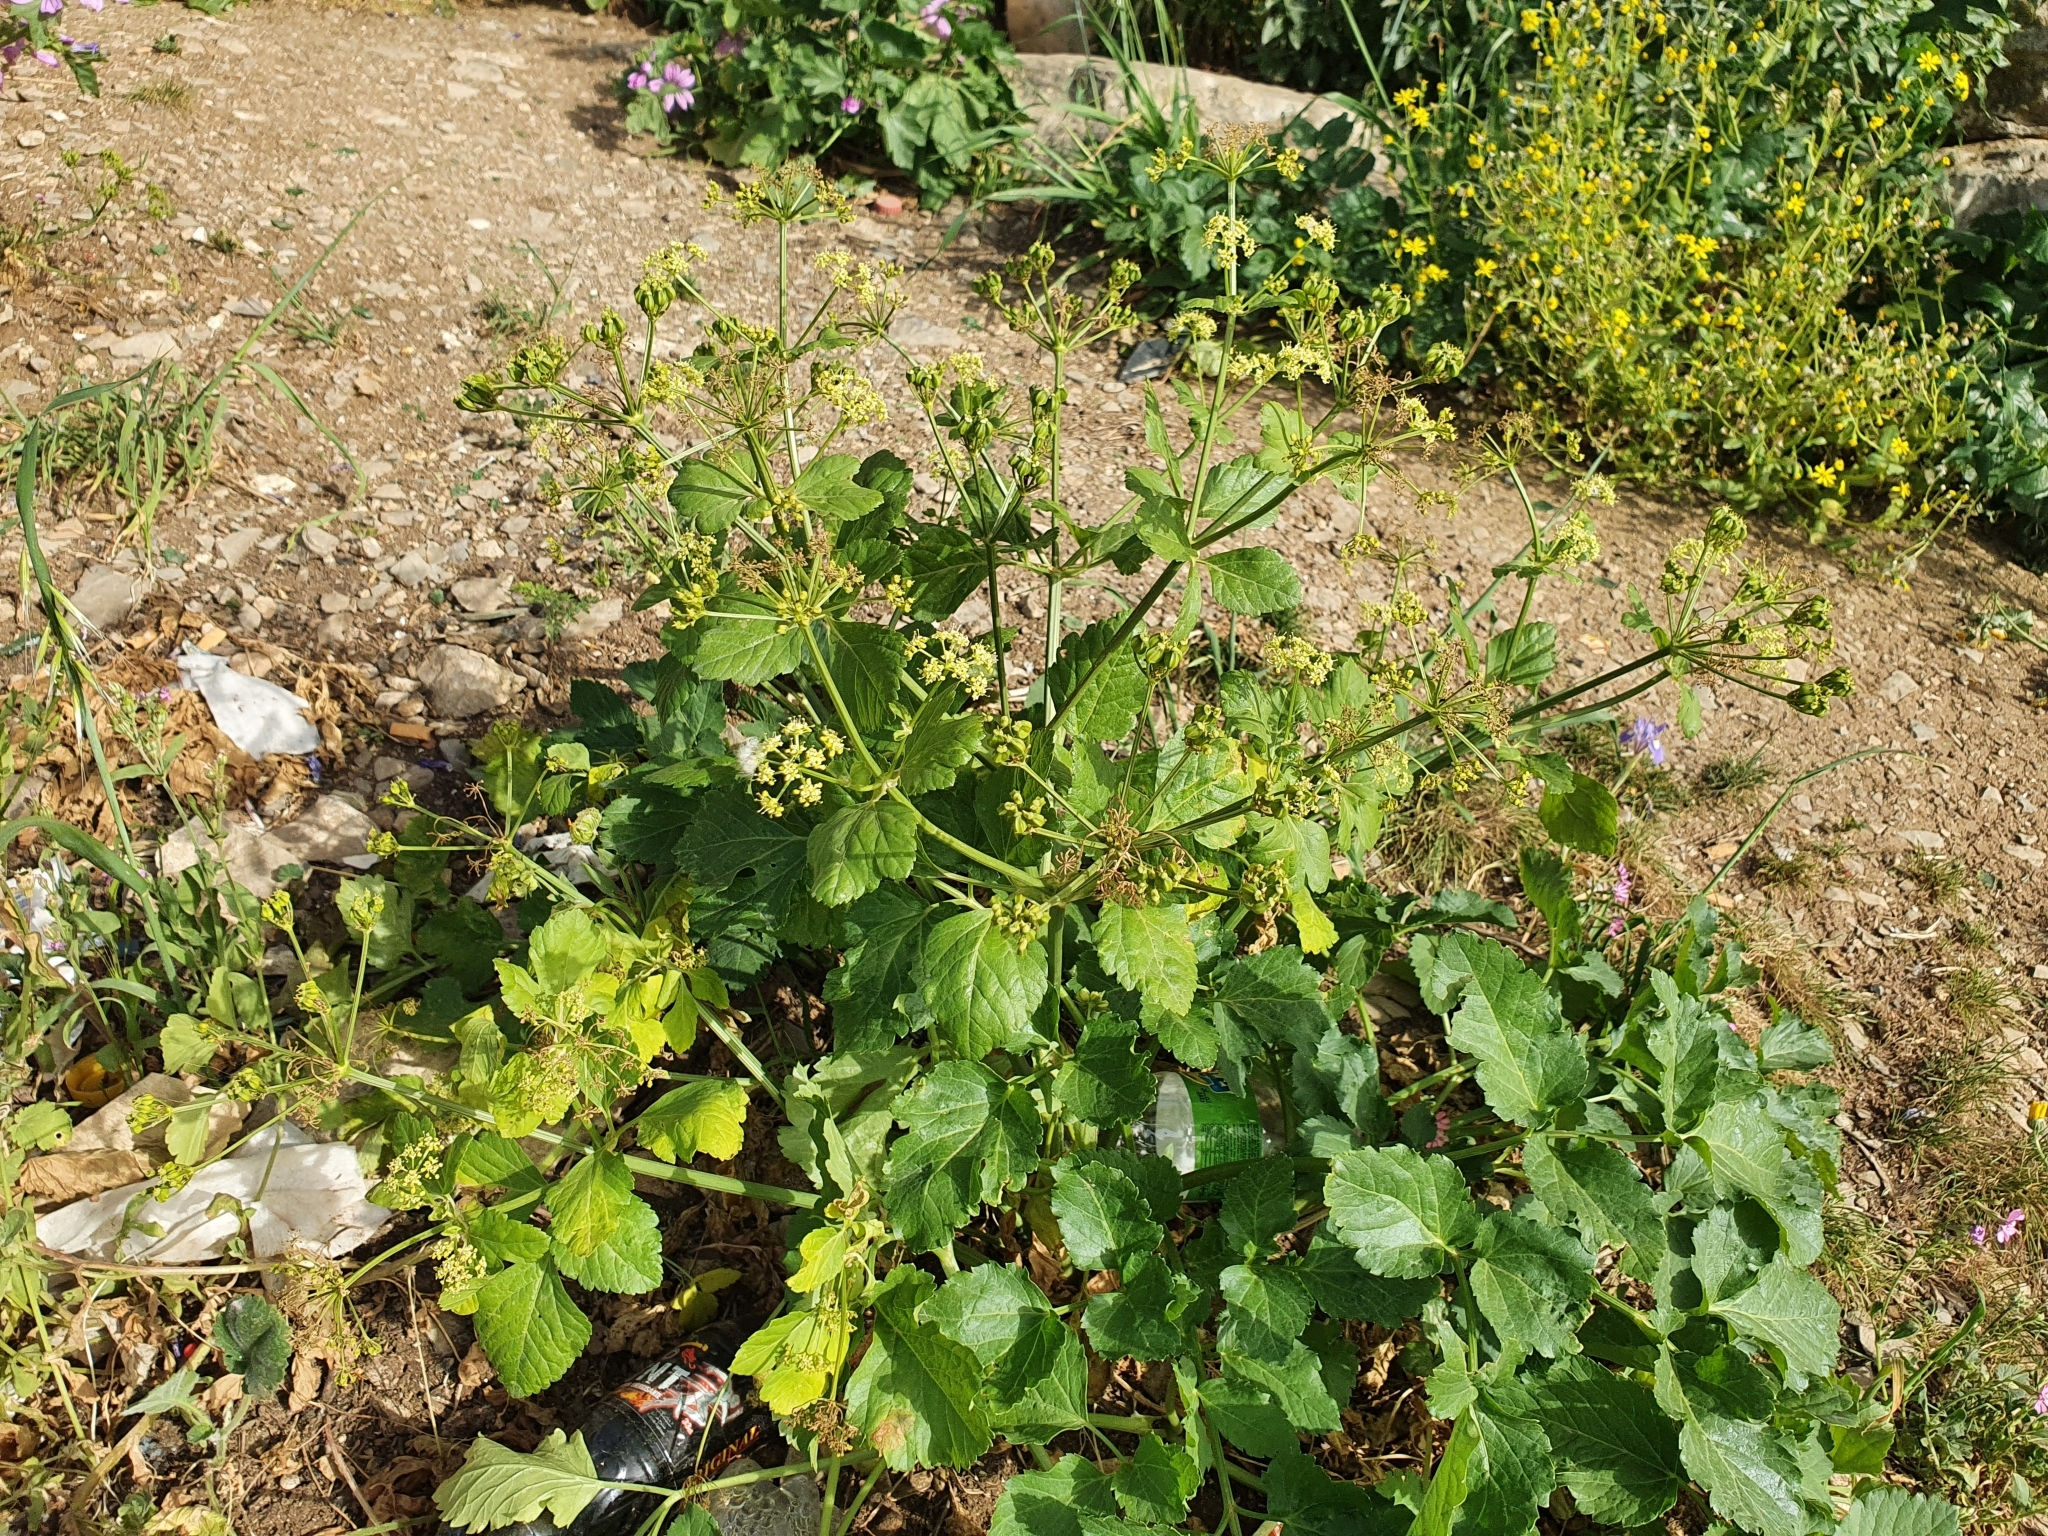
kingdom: Plantae
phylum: Tracheophyta
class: Magnoliopsida
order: Apiales
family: Apiaceae
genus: Smyrnium
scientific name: Smyrnium olusatrum
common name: Alexanders
